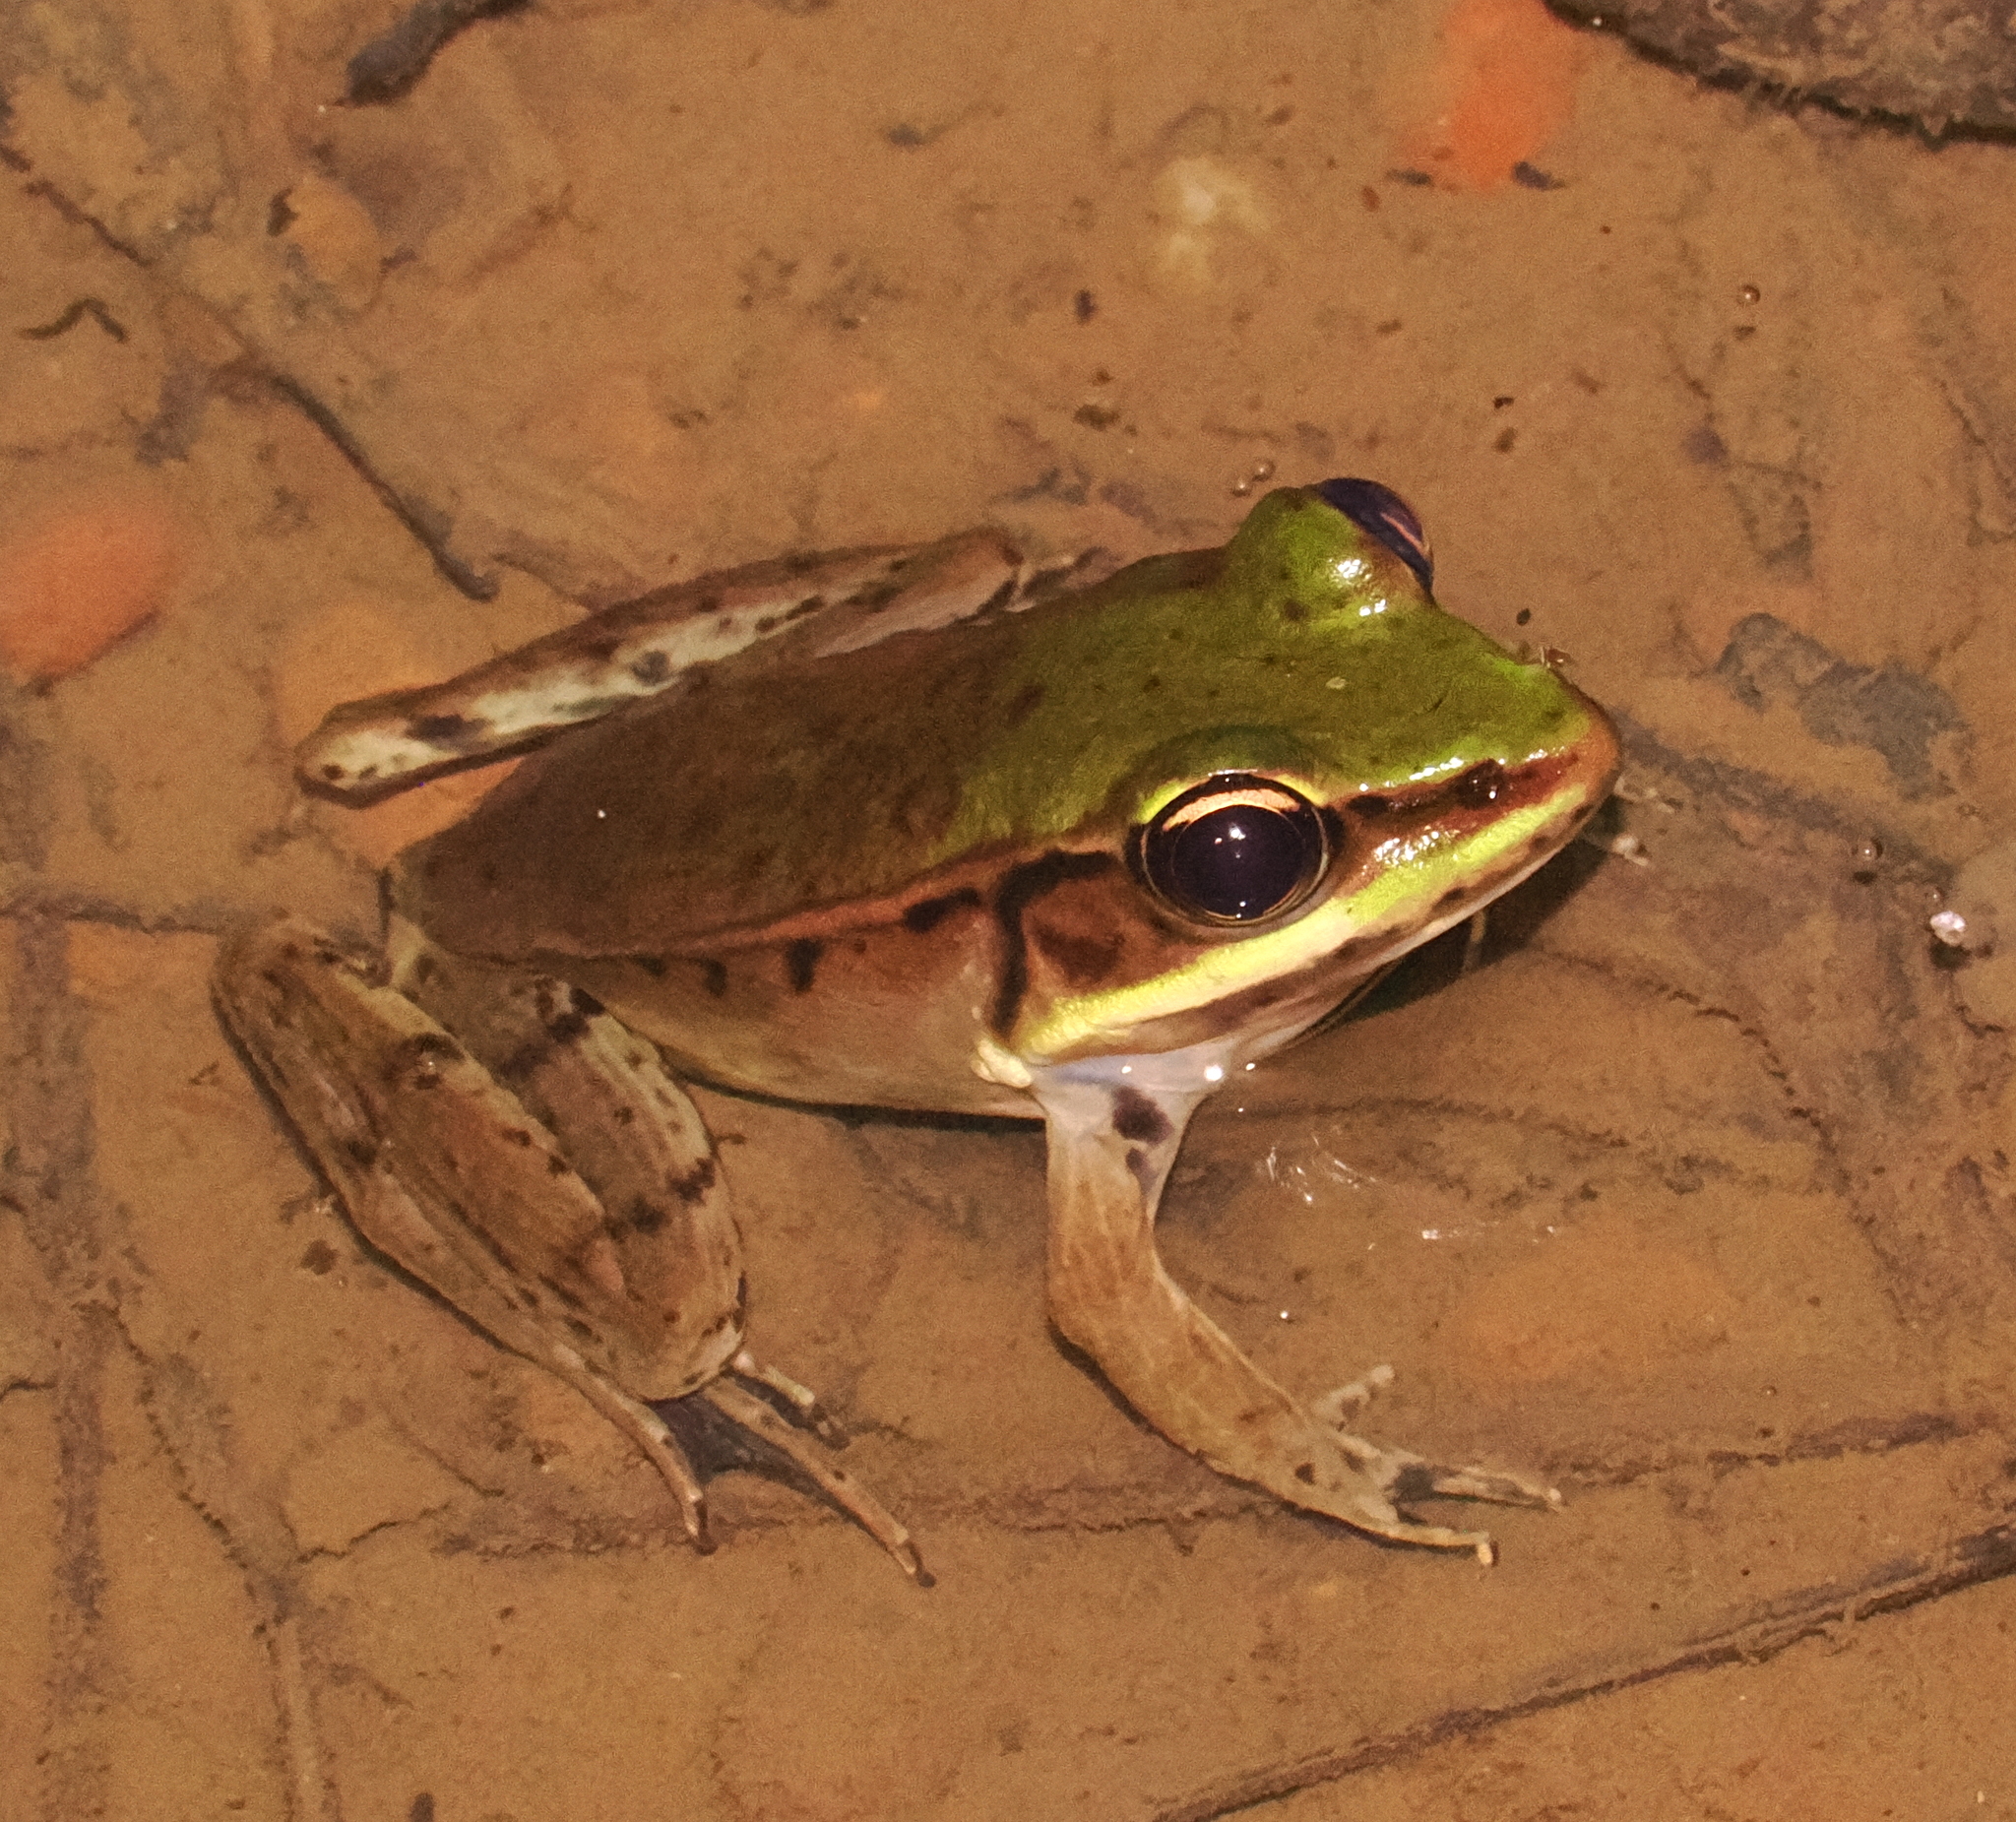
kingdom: Animalia
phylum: Chordata
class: Amphibia
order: Anura
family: Ranidae
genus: Lithobates
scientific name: Lithobates vaillanti
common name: Vaillant's frog
